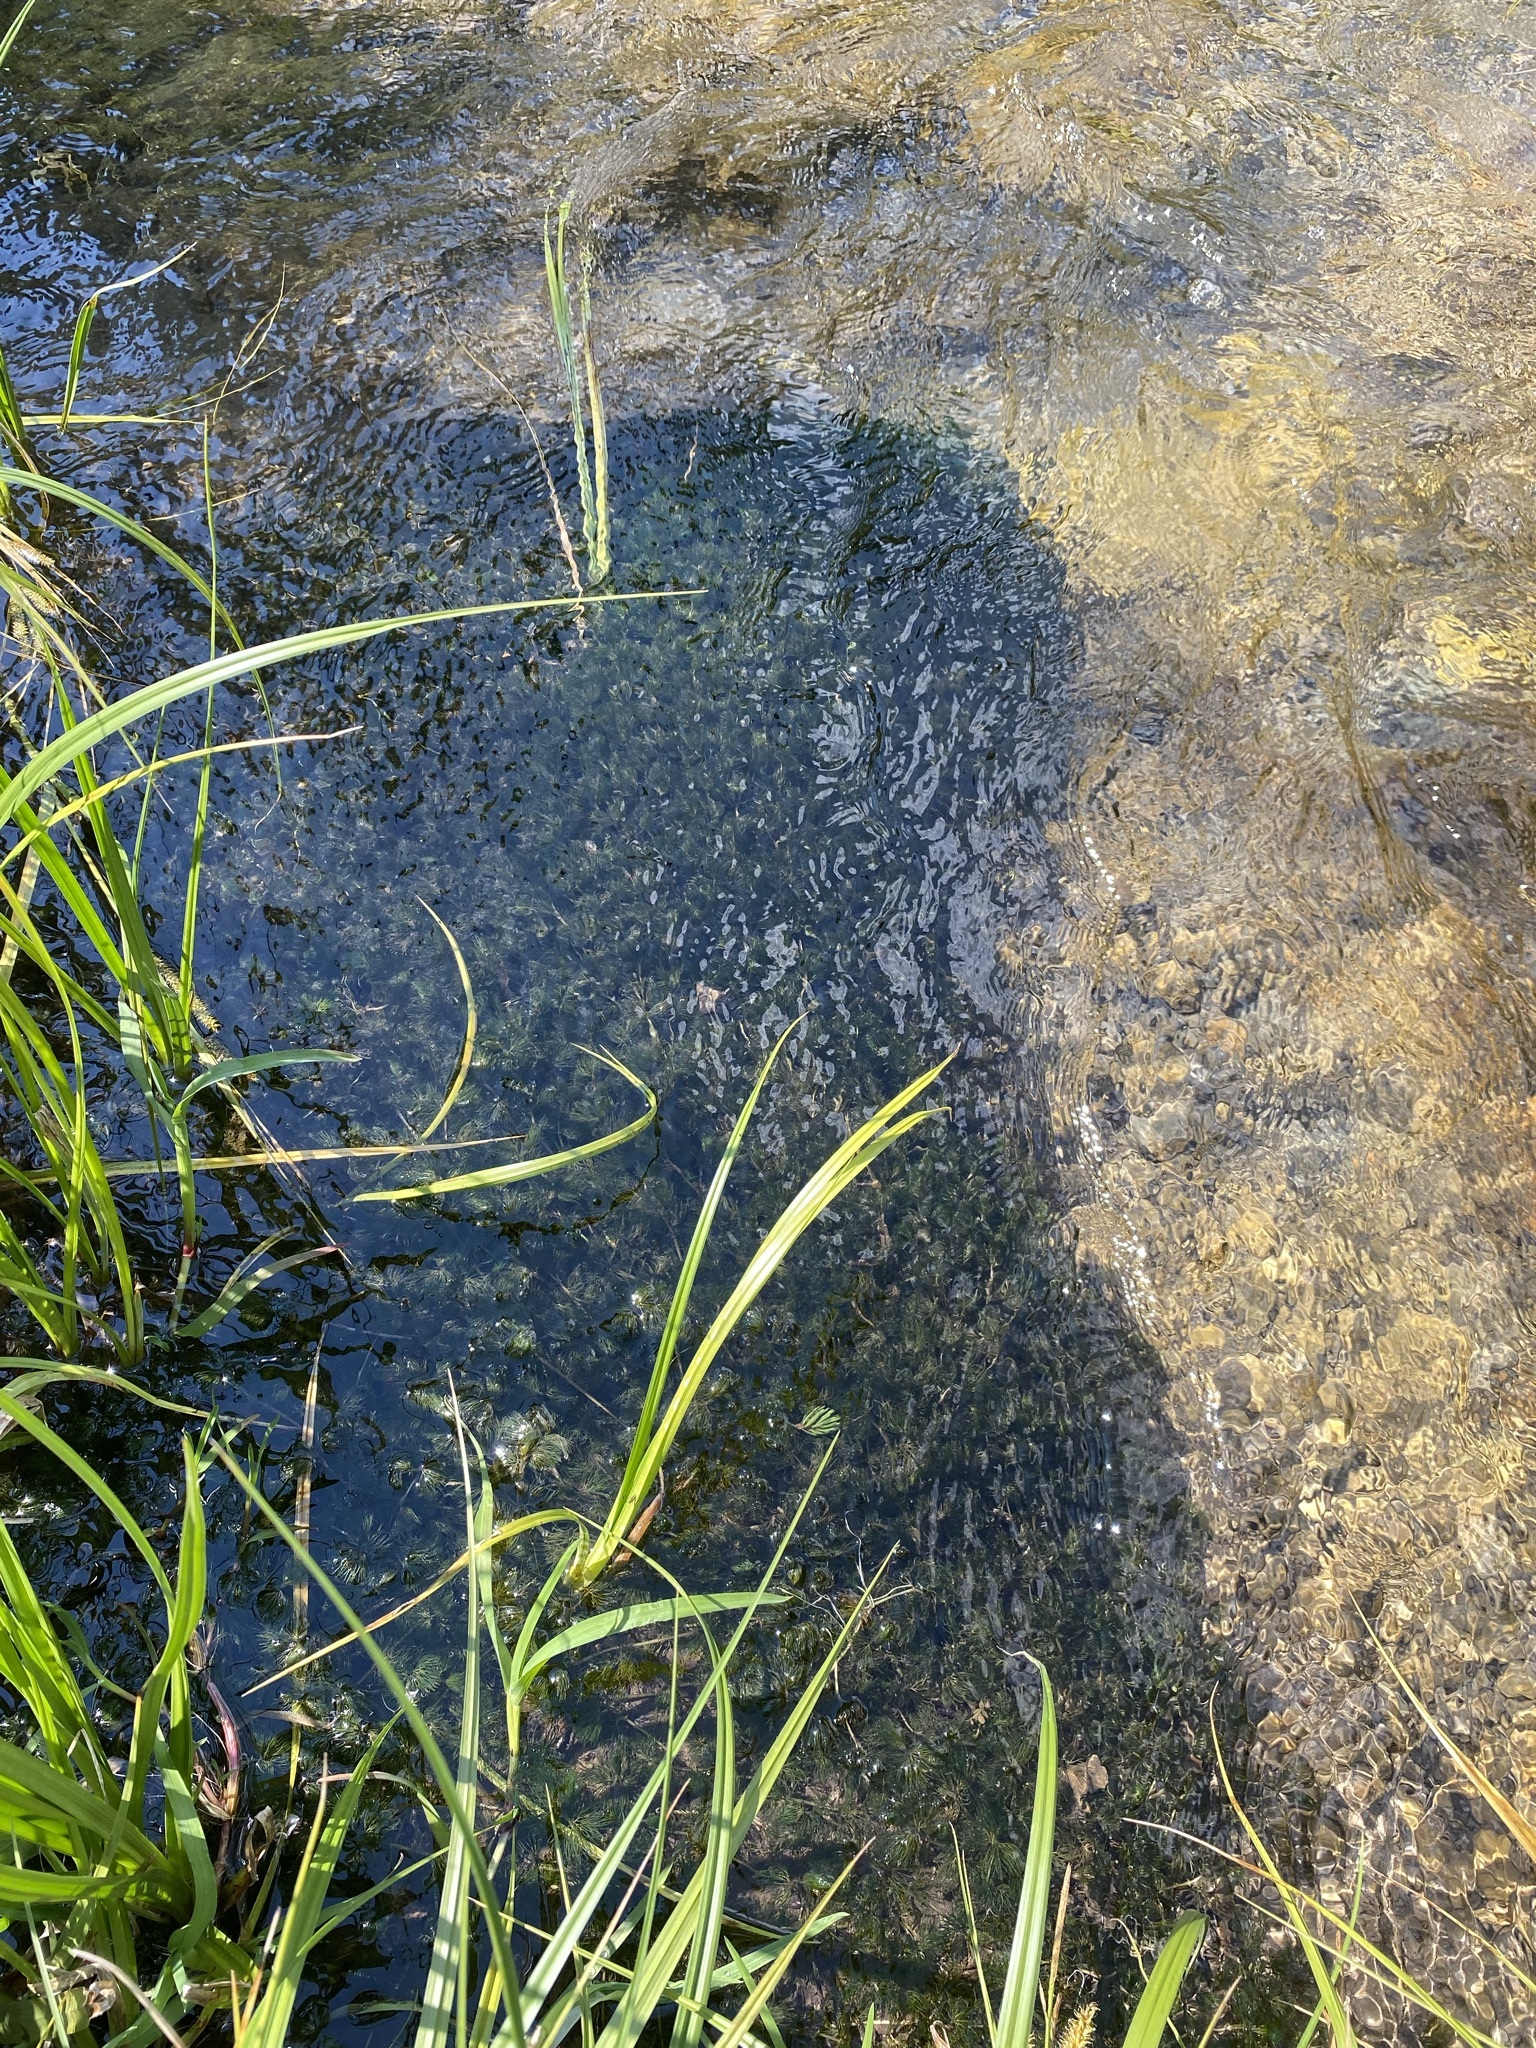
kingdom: Plantae
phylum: Tracheophyta
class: Magnoliopsida
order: Ranunculales
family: Ranunculaceae
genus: Ranunculus
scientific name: Ranunculus aquatilis
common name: Common water-crowfoot
